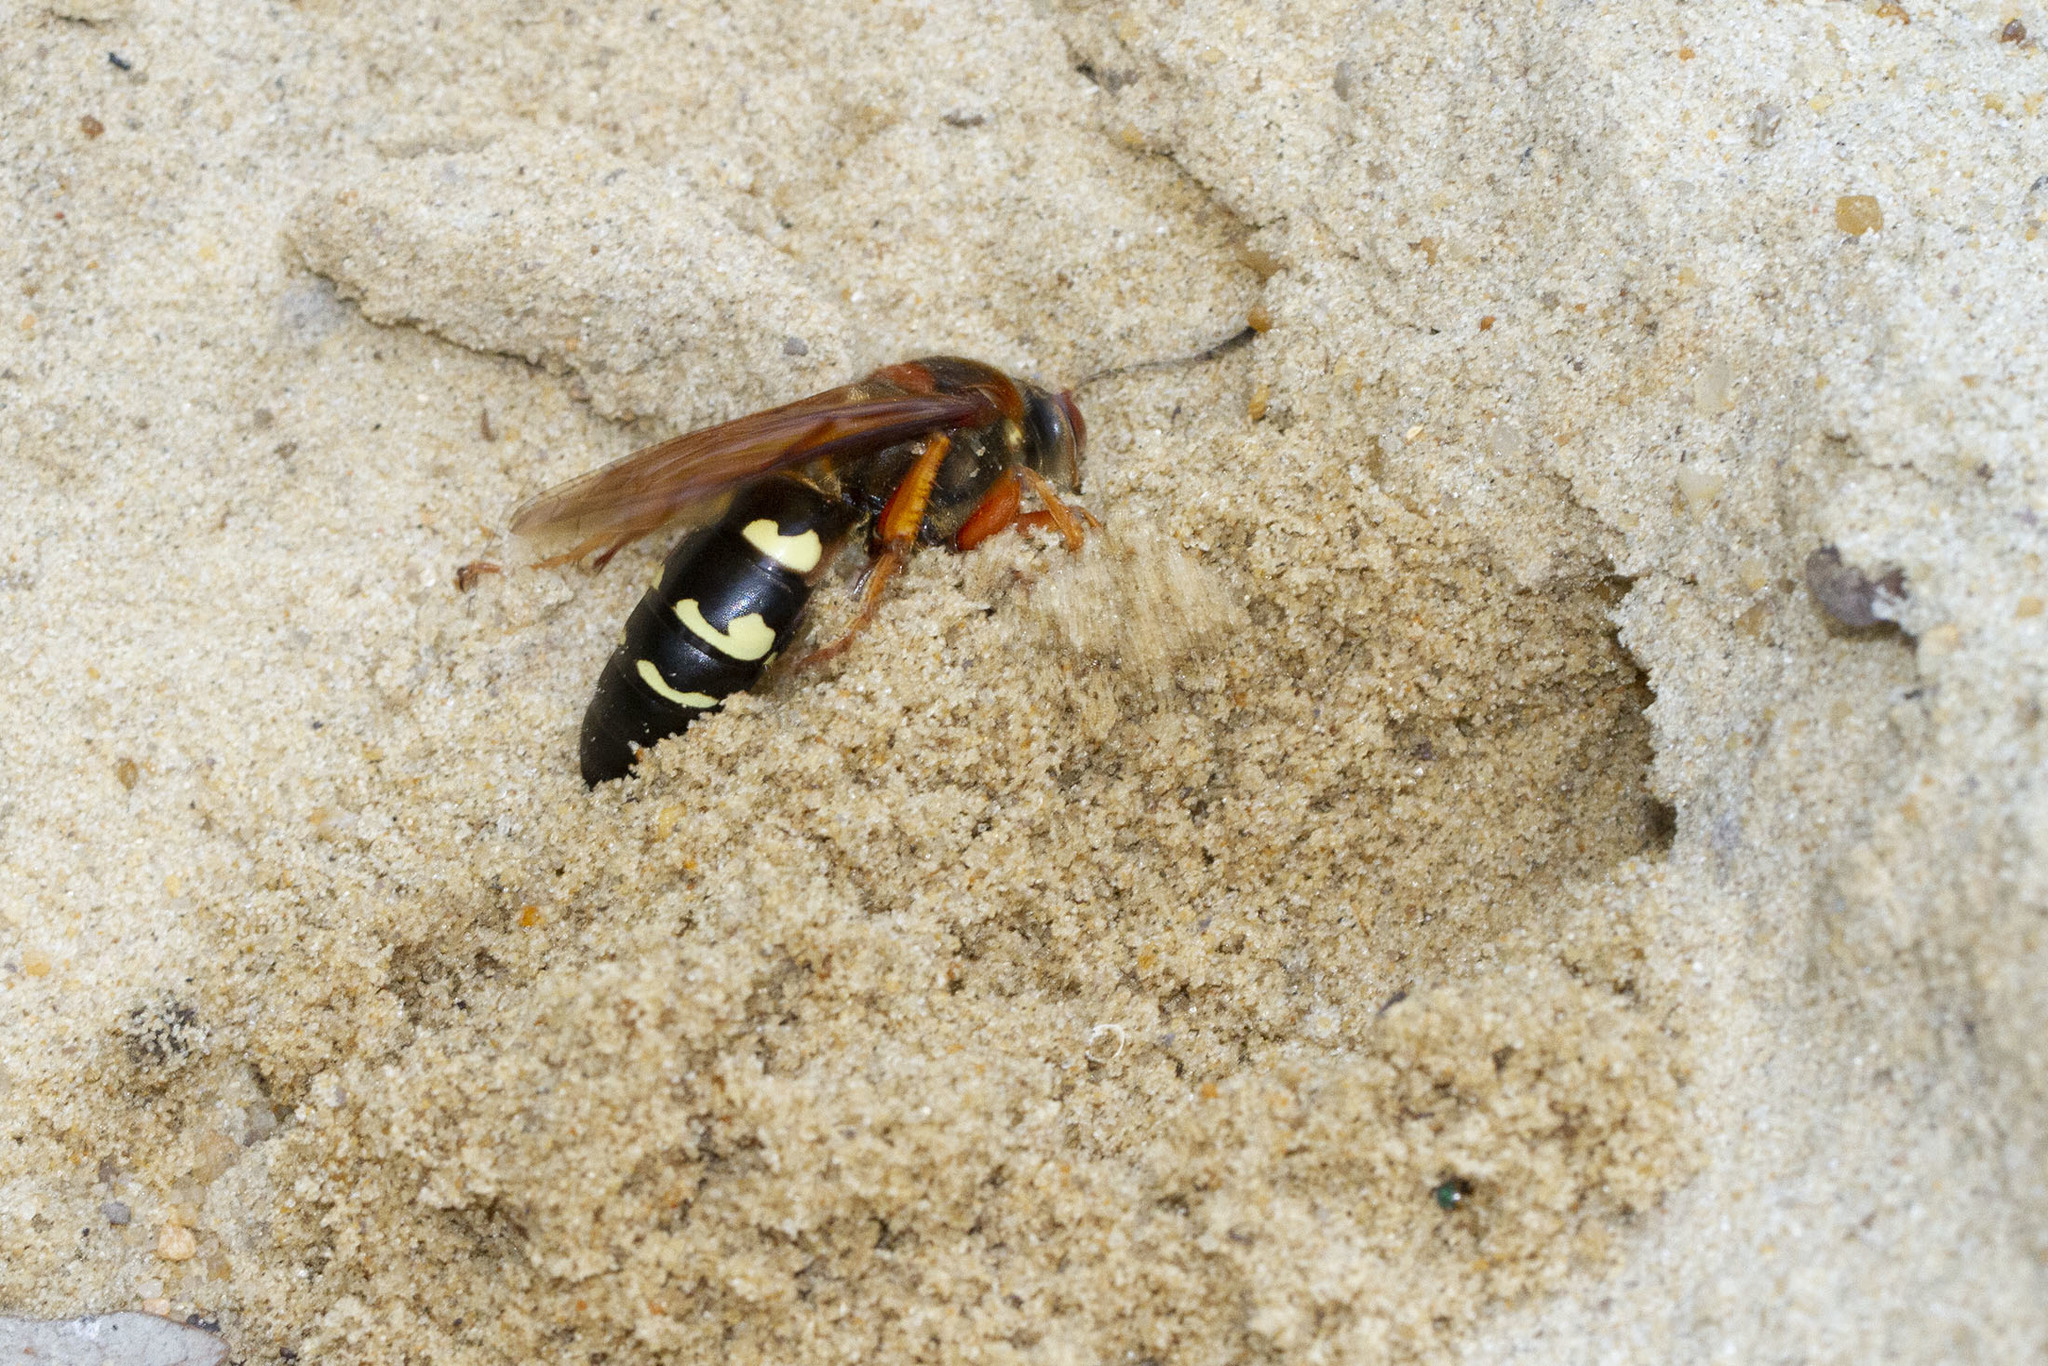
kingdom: Animalia
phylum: Arthropoda
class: Insecta
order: Hymenoptera
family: Crabronidae
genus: Sphecius
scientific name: Sphecius speciosus
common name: Cicada killer
